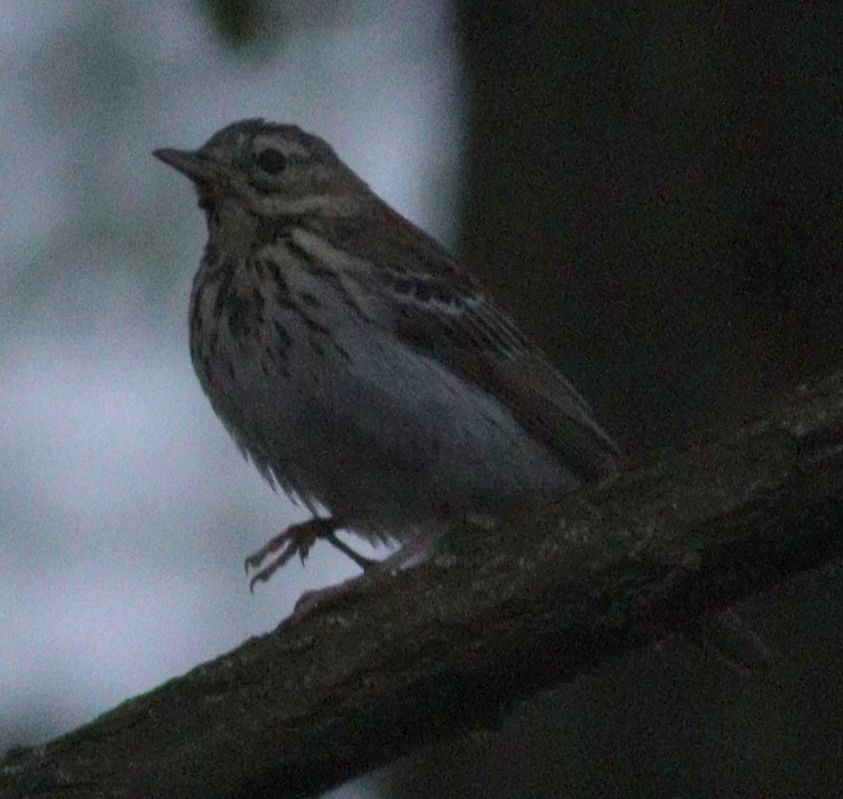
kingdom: Animalia
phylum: Chordata
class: Aves
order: Passeriformes
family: Motacillidae
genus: Anthus
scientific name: Anthus trivialis
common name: Tree pipit
